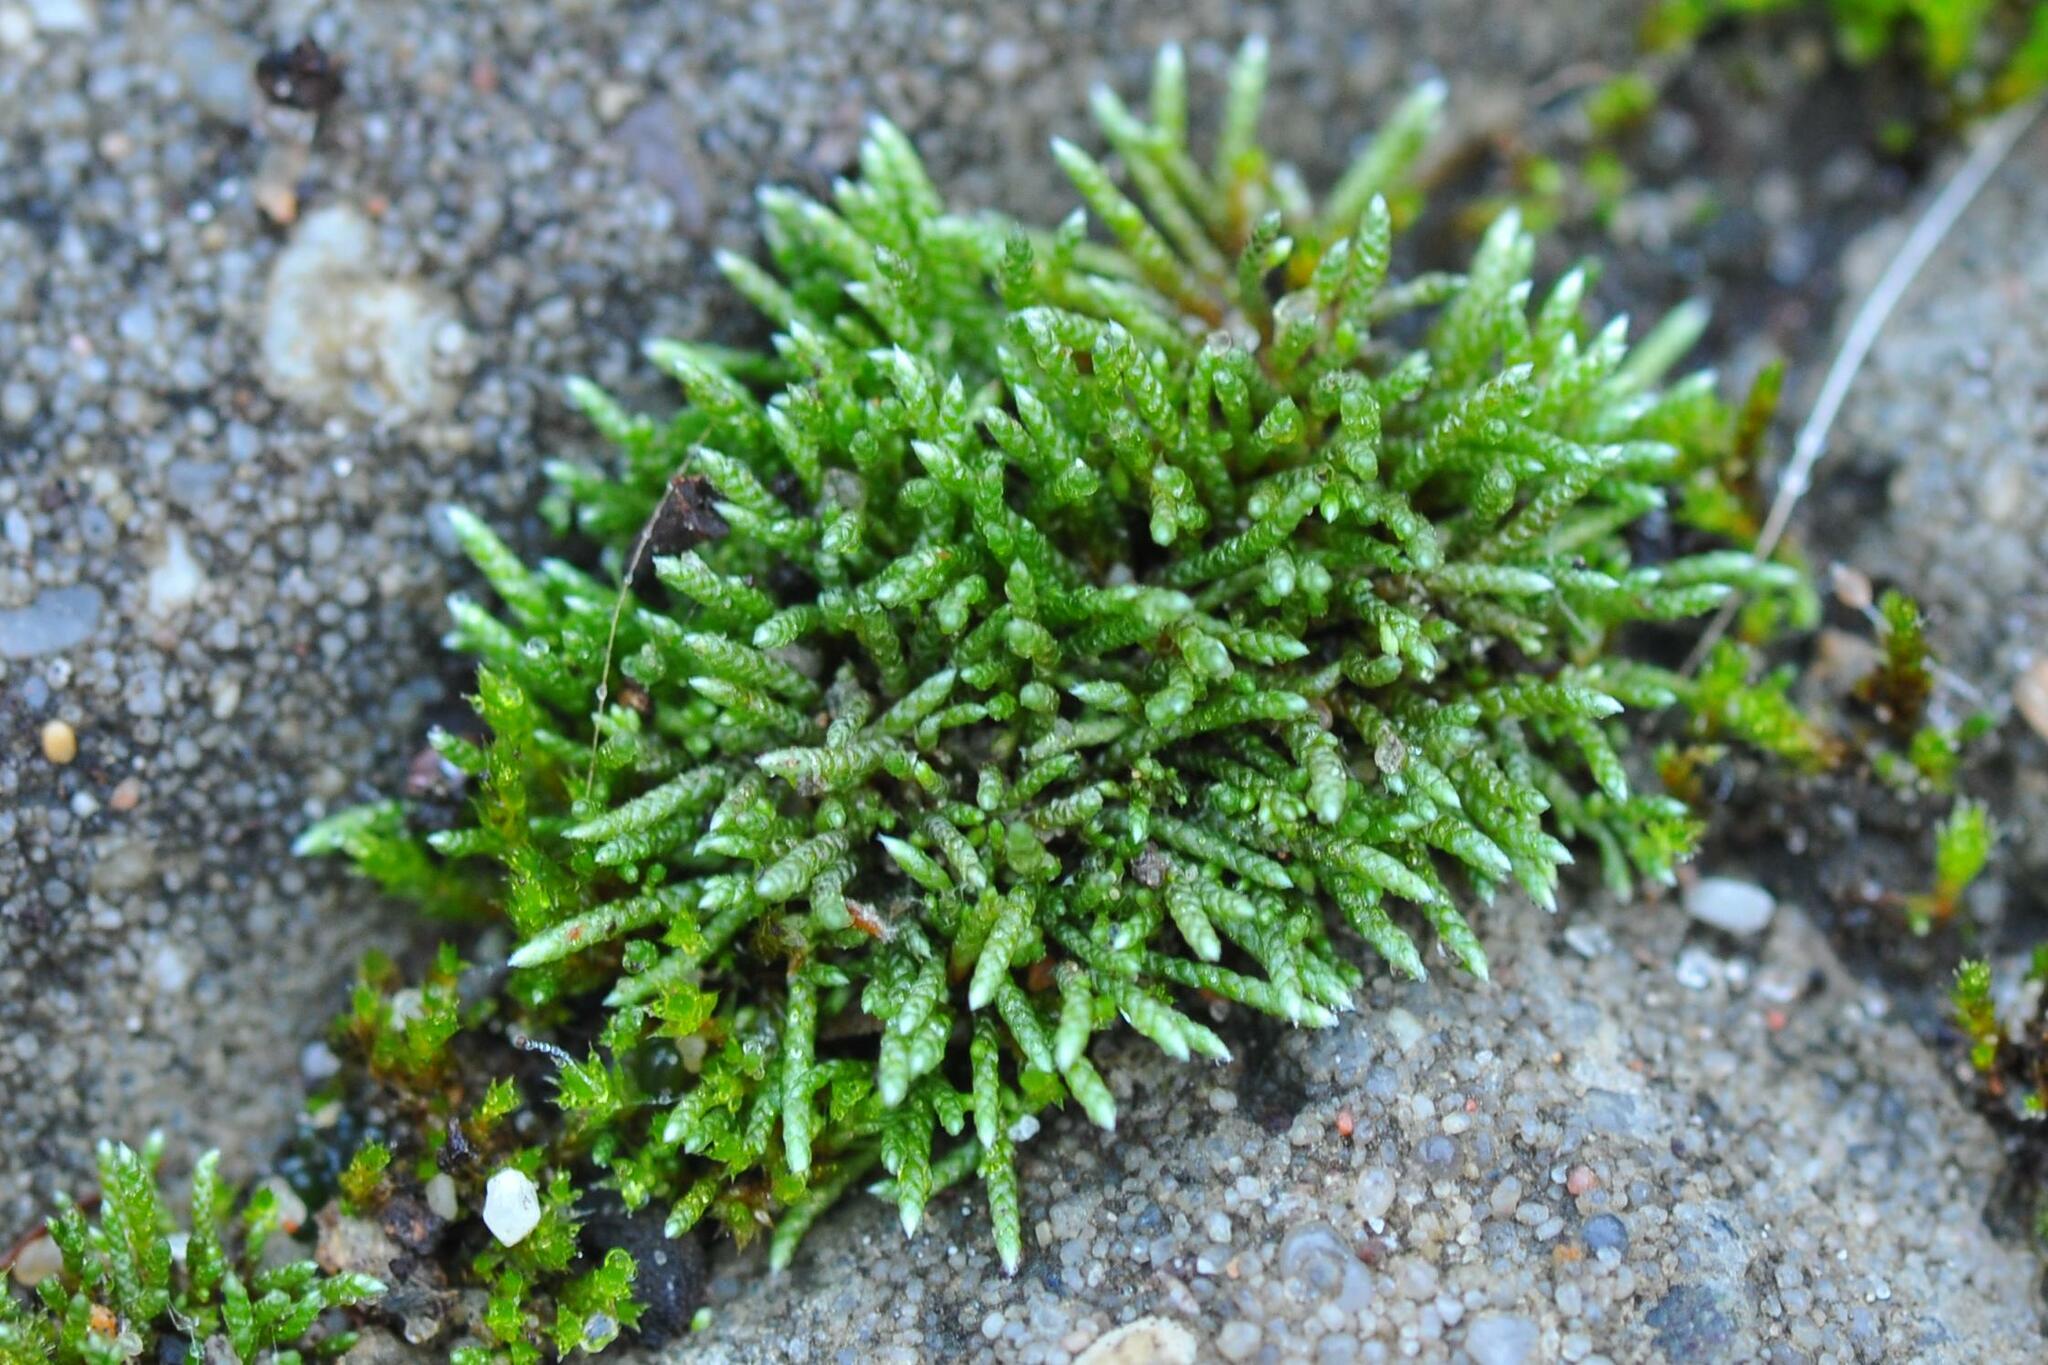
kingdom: Plantae
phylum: Bryophyta
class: Bryopsida
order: Bryales
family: Bryaceae
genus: Bryum
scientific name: Bryum argenteum
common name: Silver-moss
